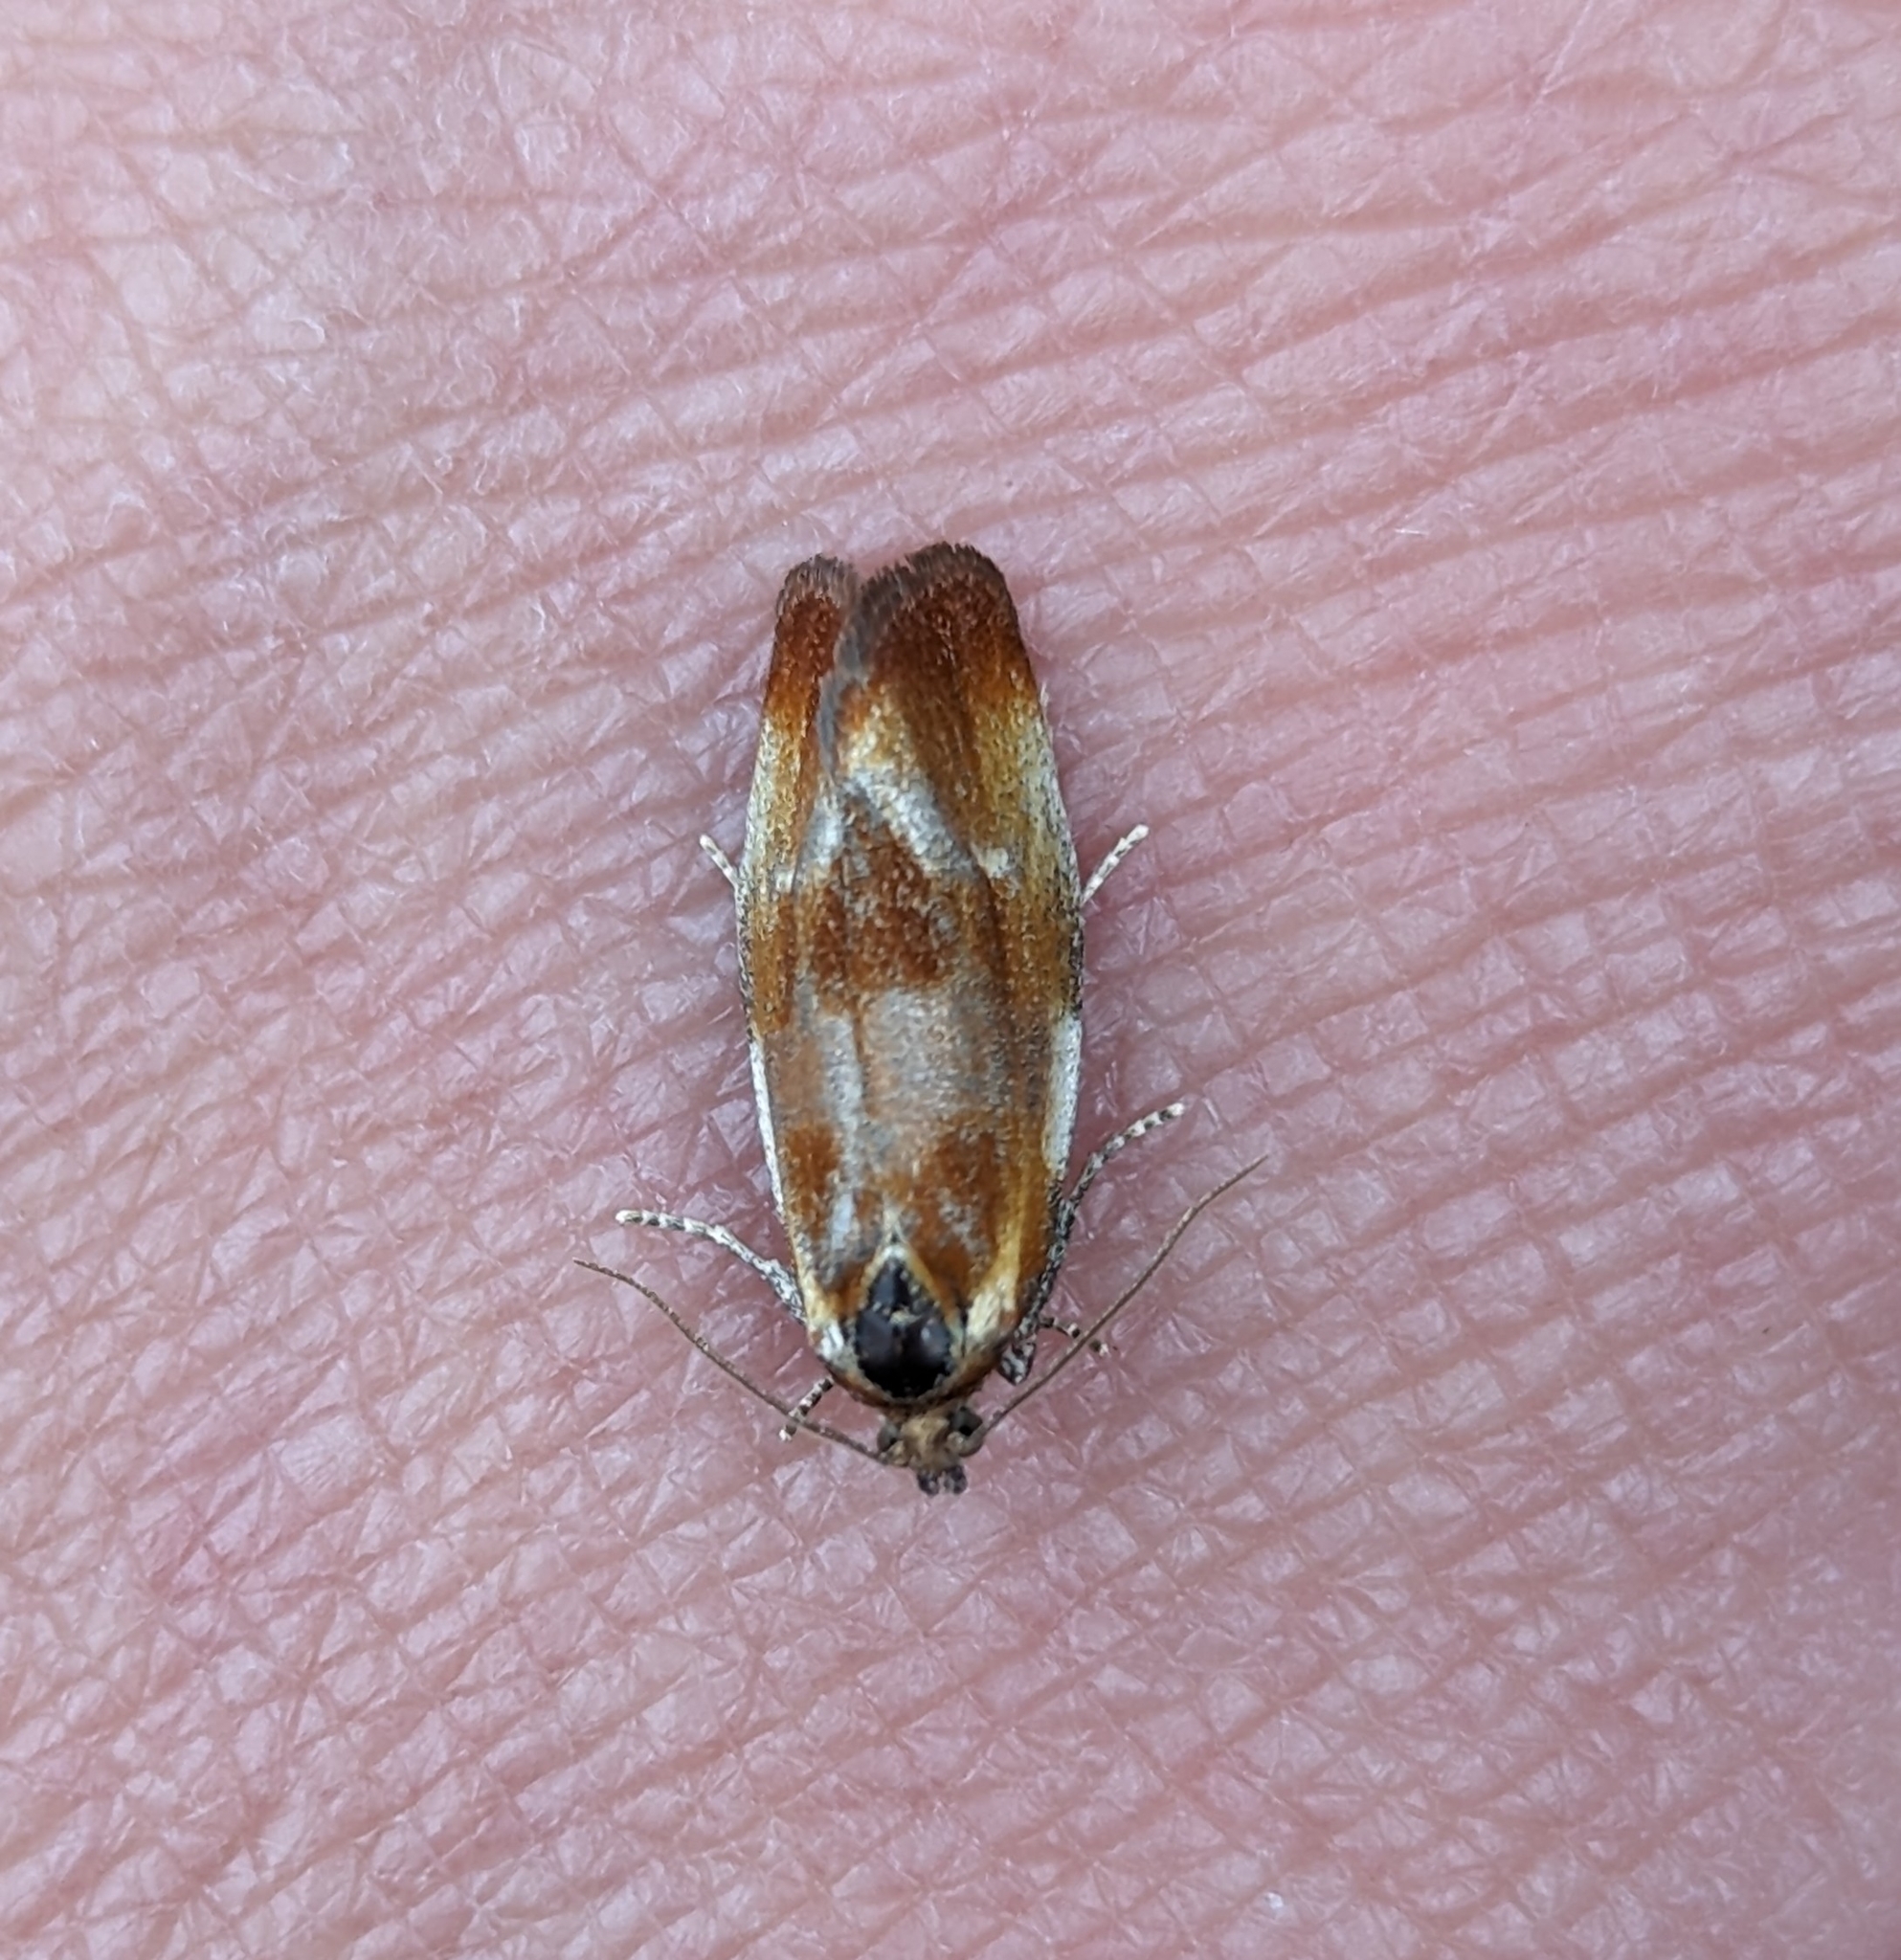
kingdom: Animalia
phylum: Arthropoda
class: Insecta
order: Lepidoptera
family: Tortricidae
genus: Eulia
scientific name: Eulia ministrana
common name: Brassy twist
